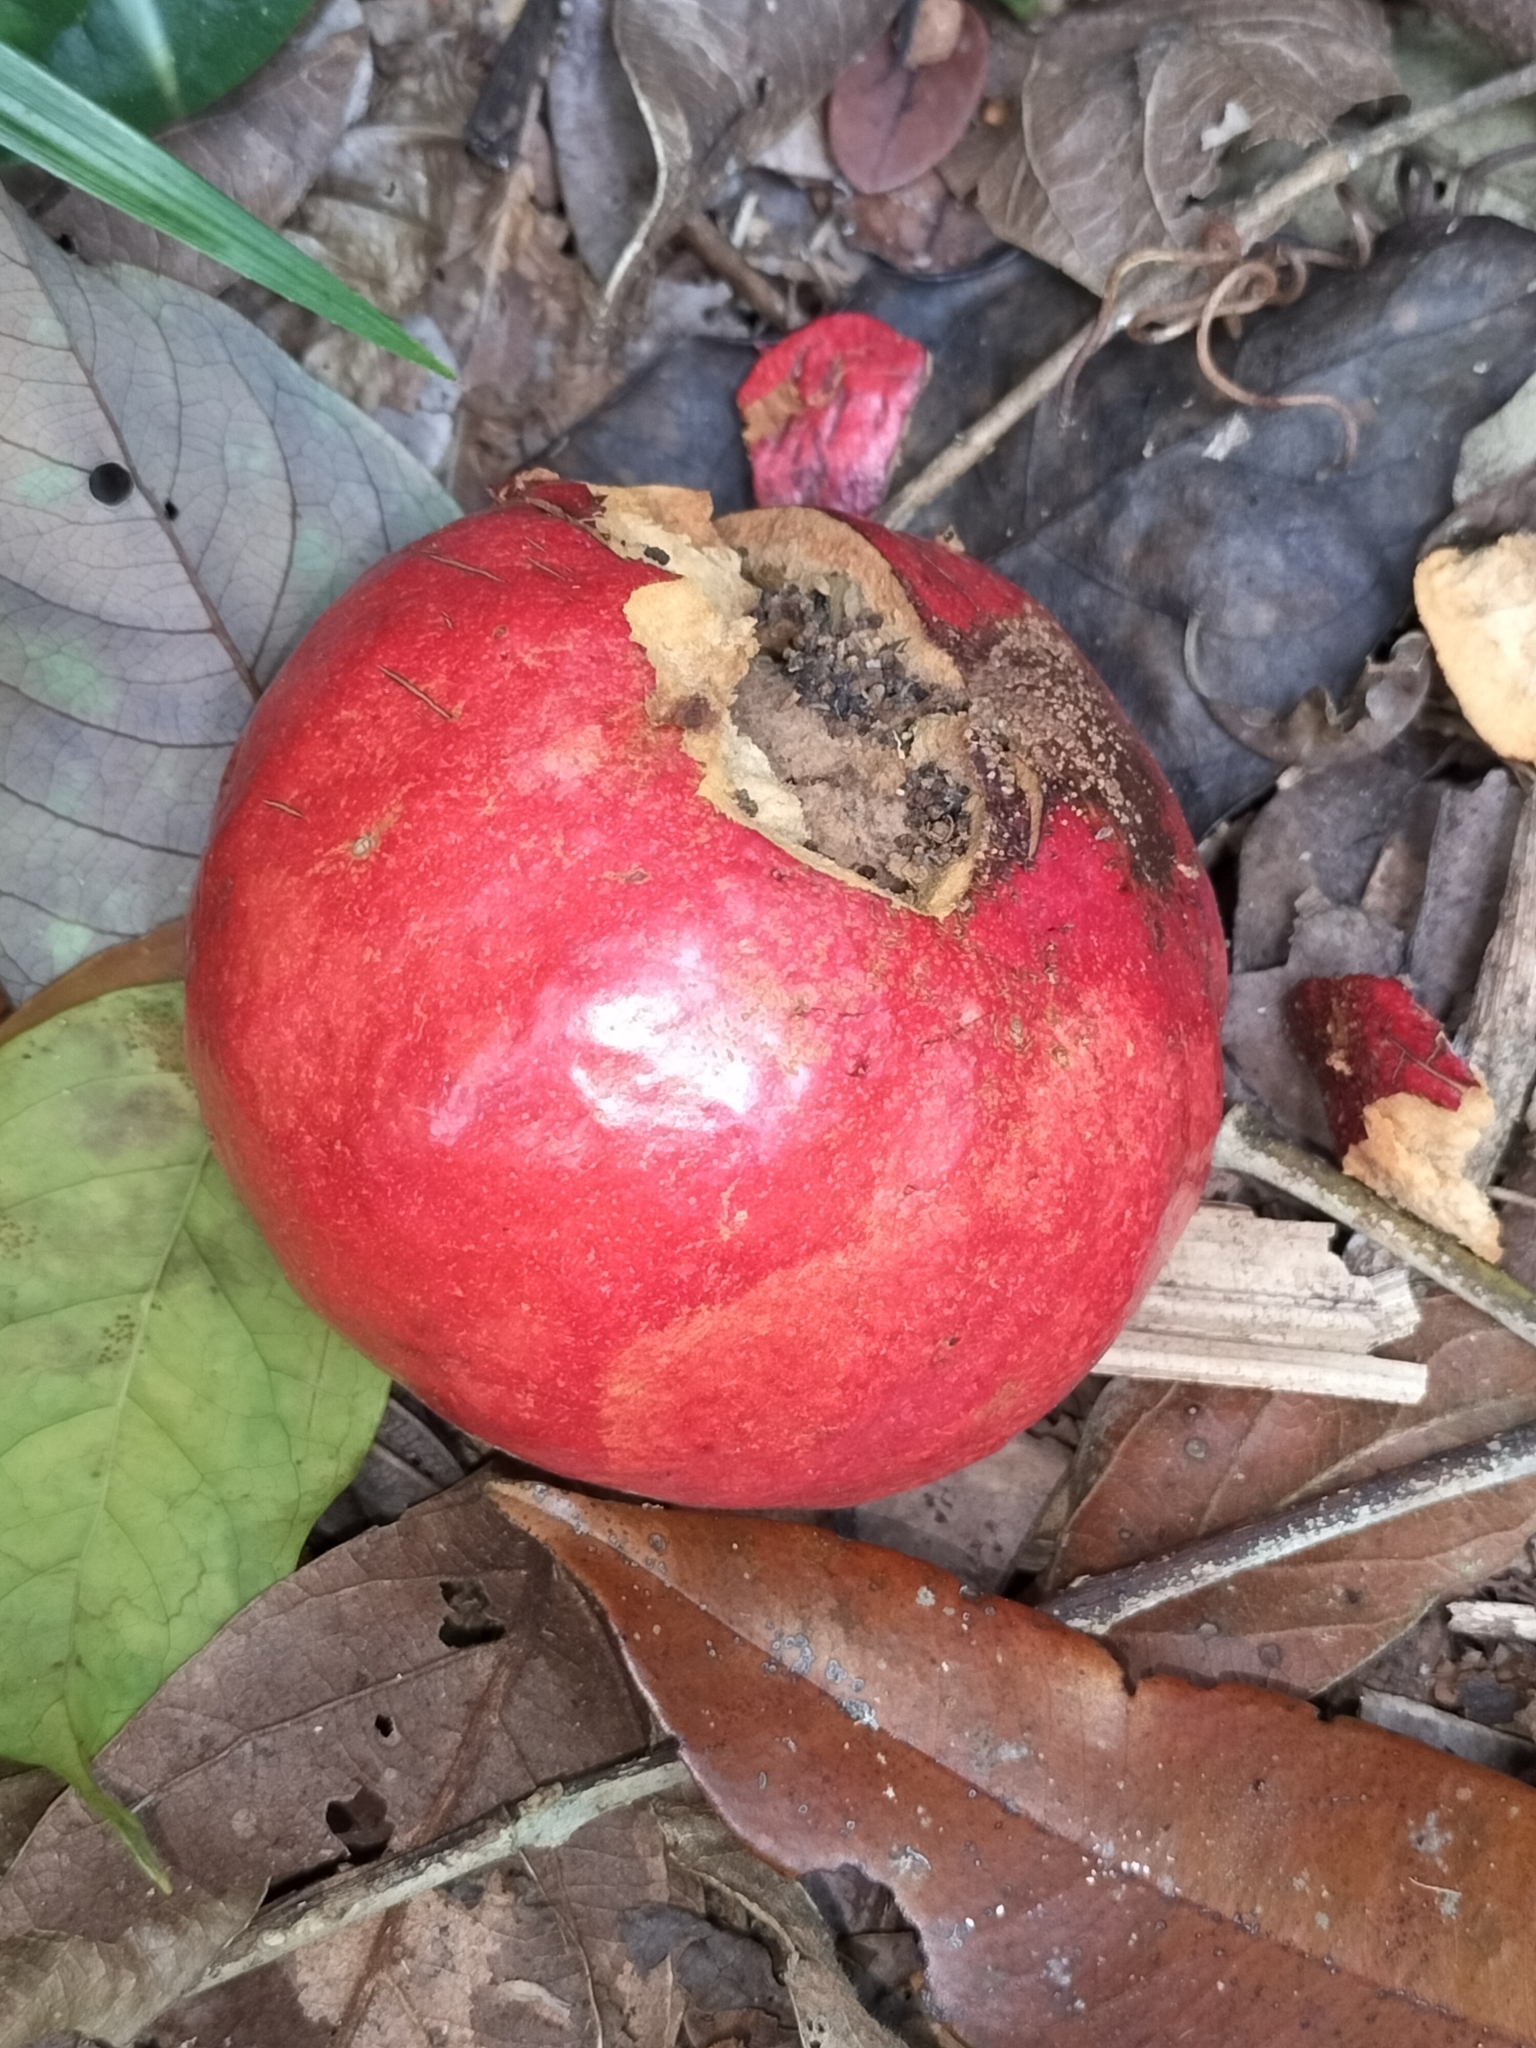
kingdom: Plantae
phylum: Tracheophyta
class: Magnoliopsida
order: Laurales
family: Lauraceae
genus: Endiandra
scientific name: Endiandra insignis
